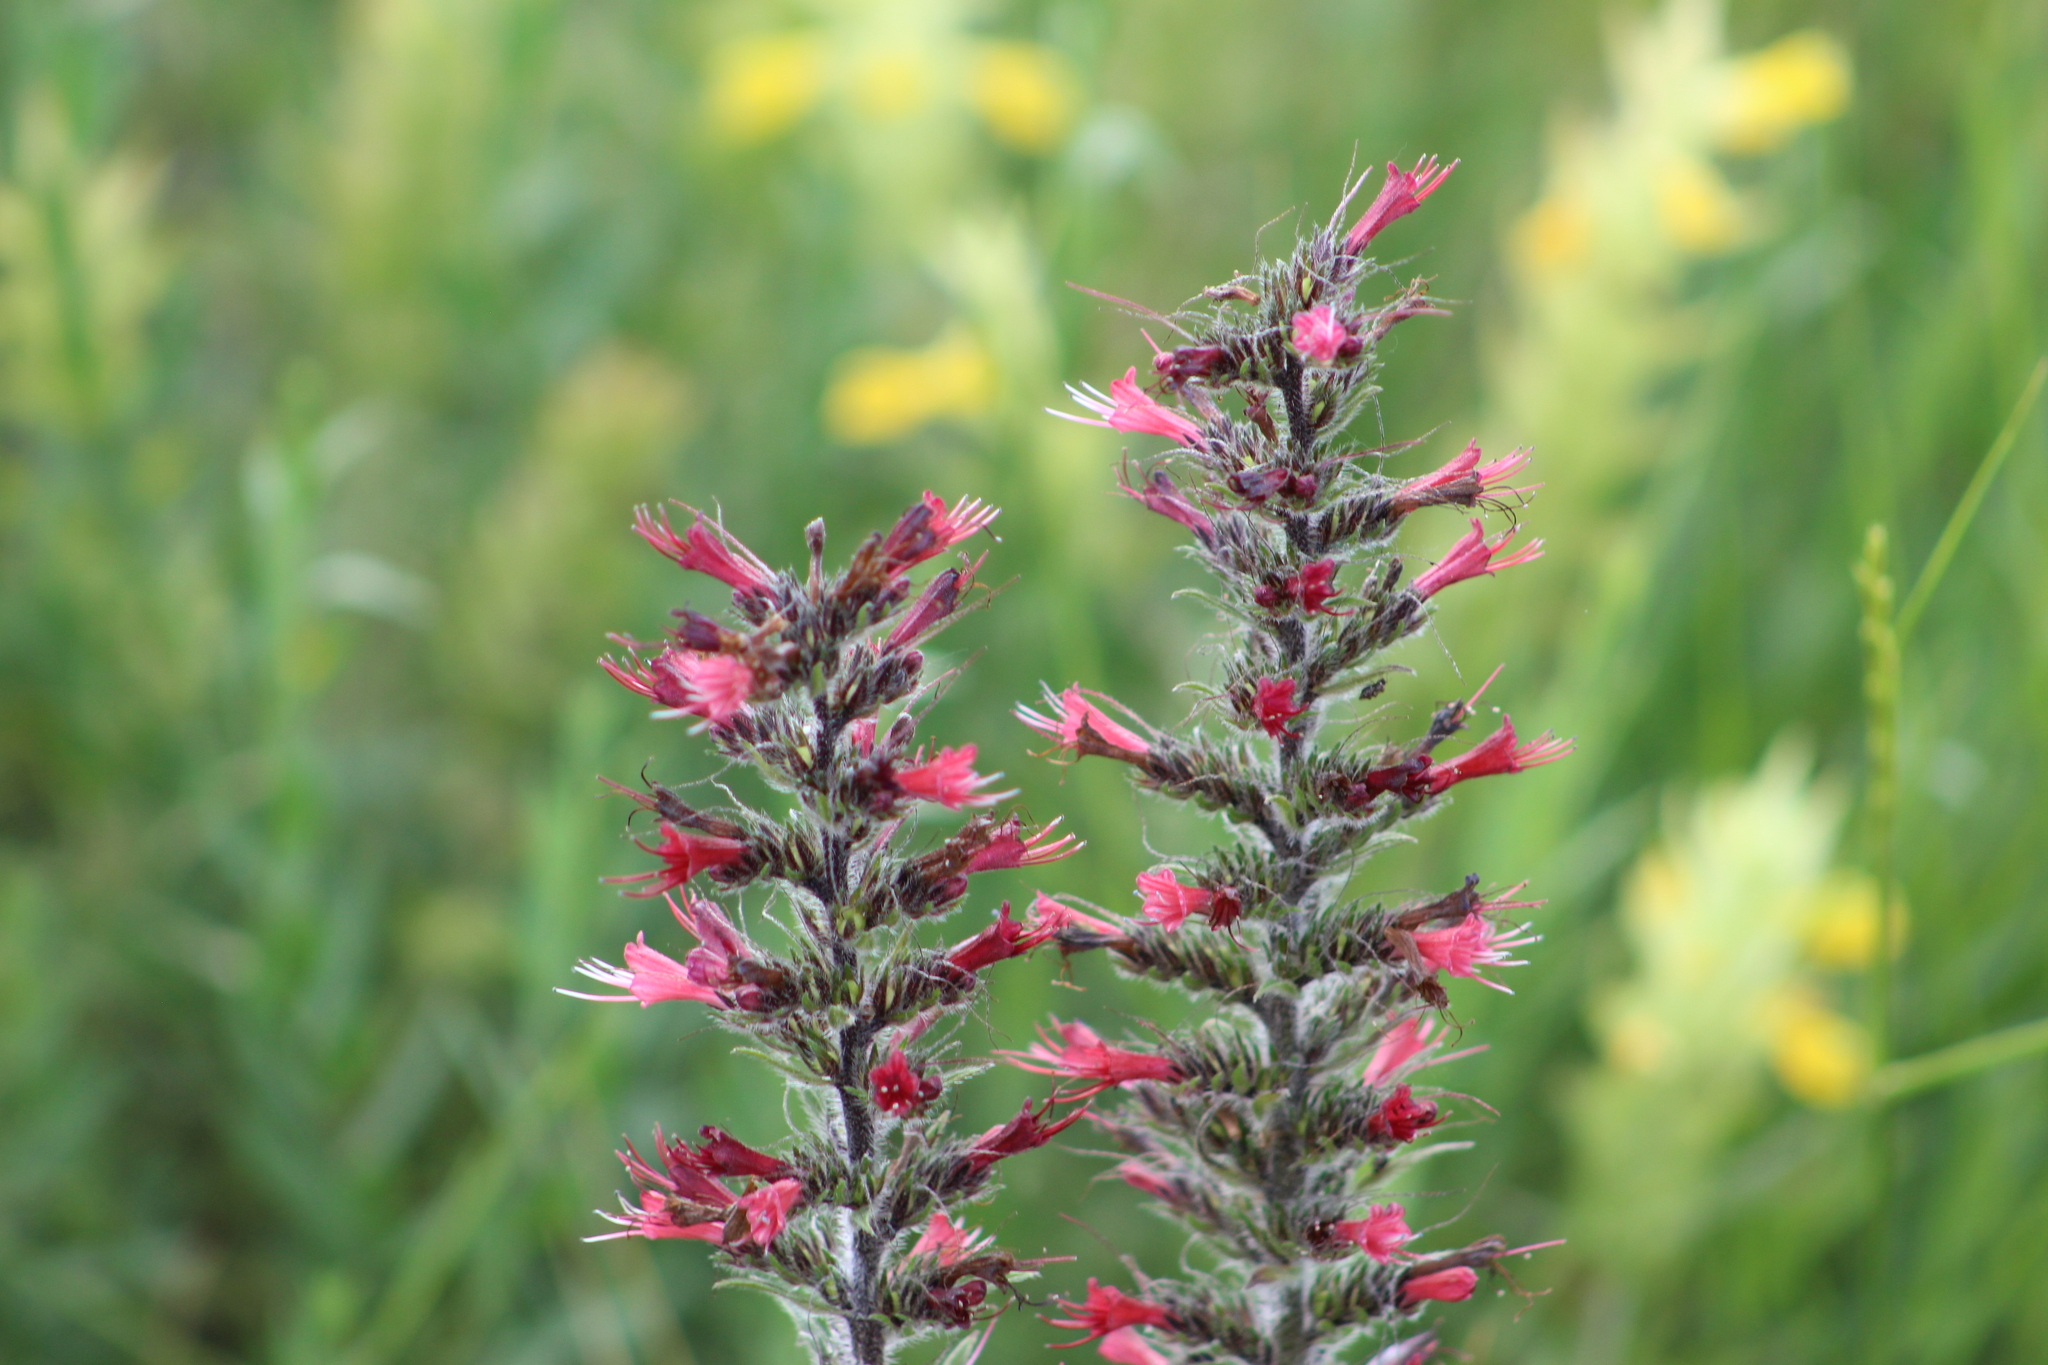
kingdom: Plantae
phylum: Tracheophyta
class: Magnoliopsida
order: Boraginales
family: Boraginaceae
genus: Pontechium
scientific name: Pontechium maculatum
